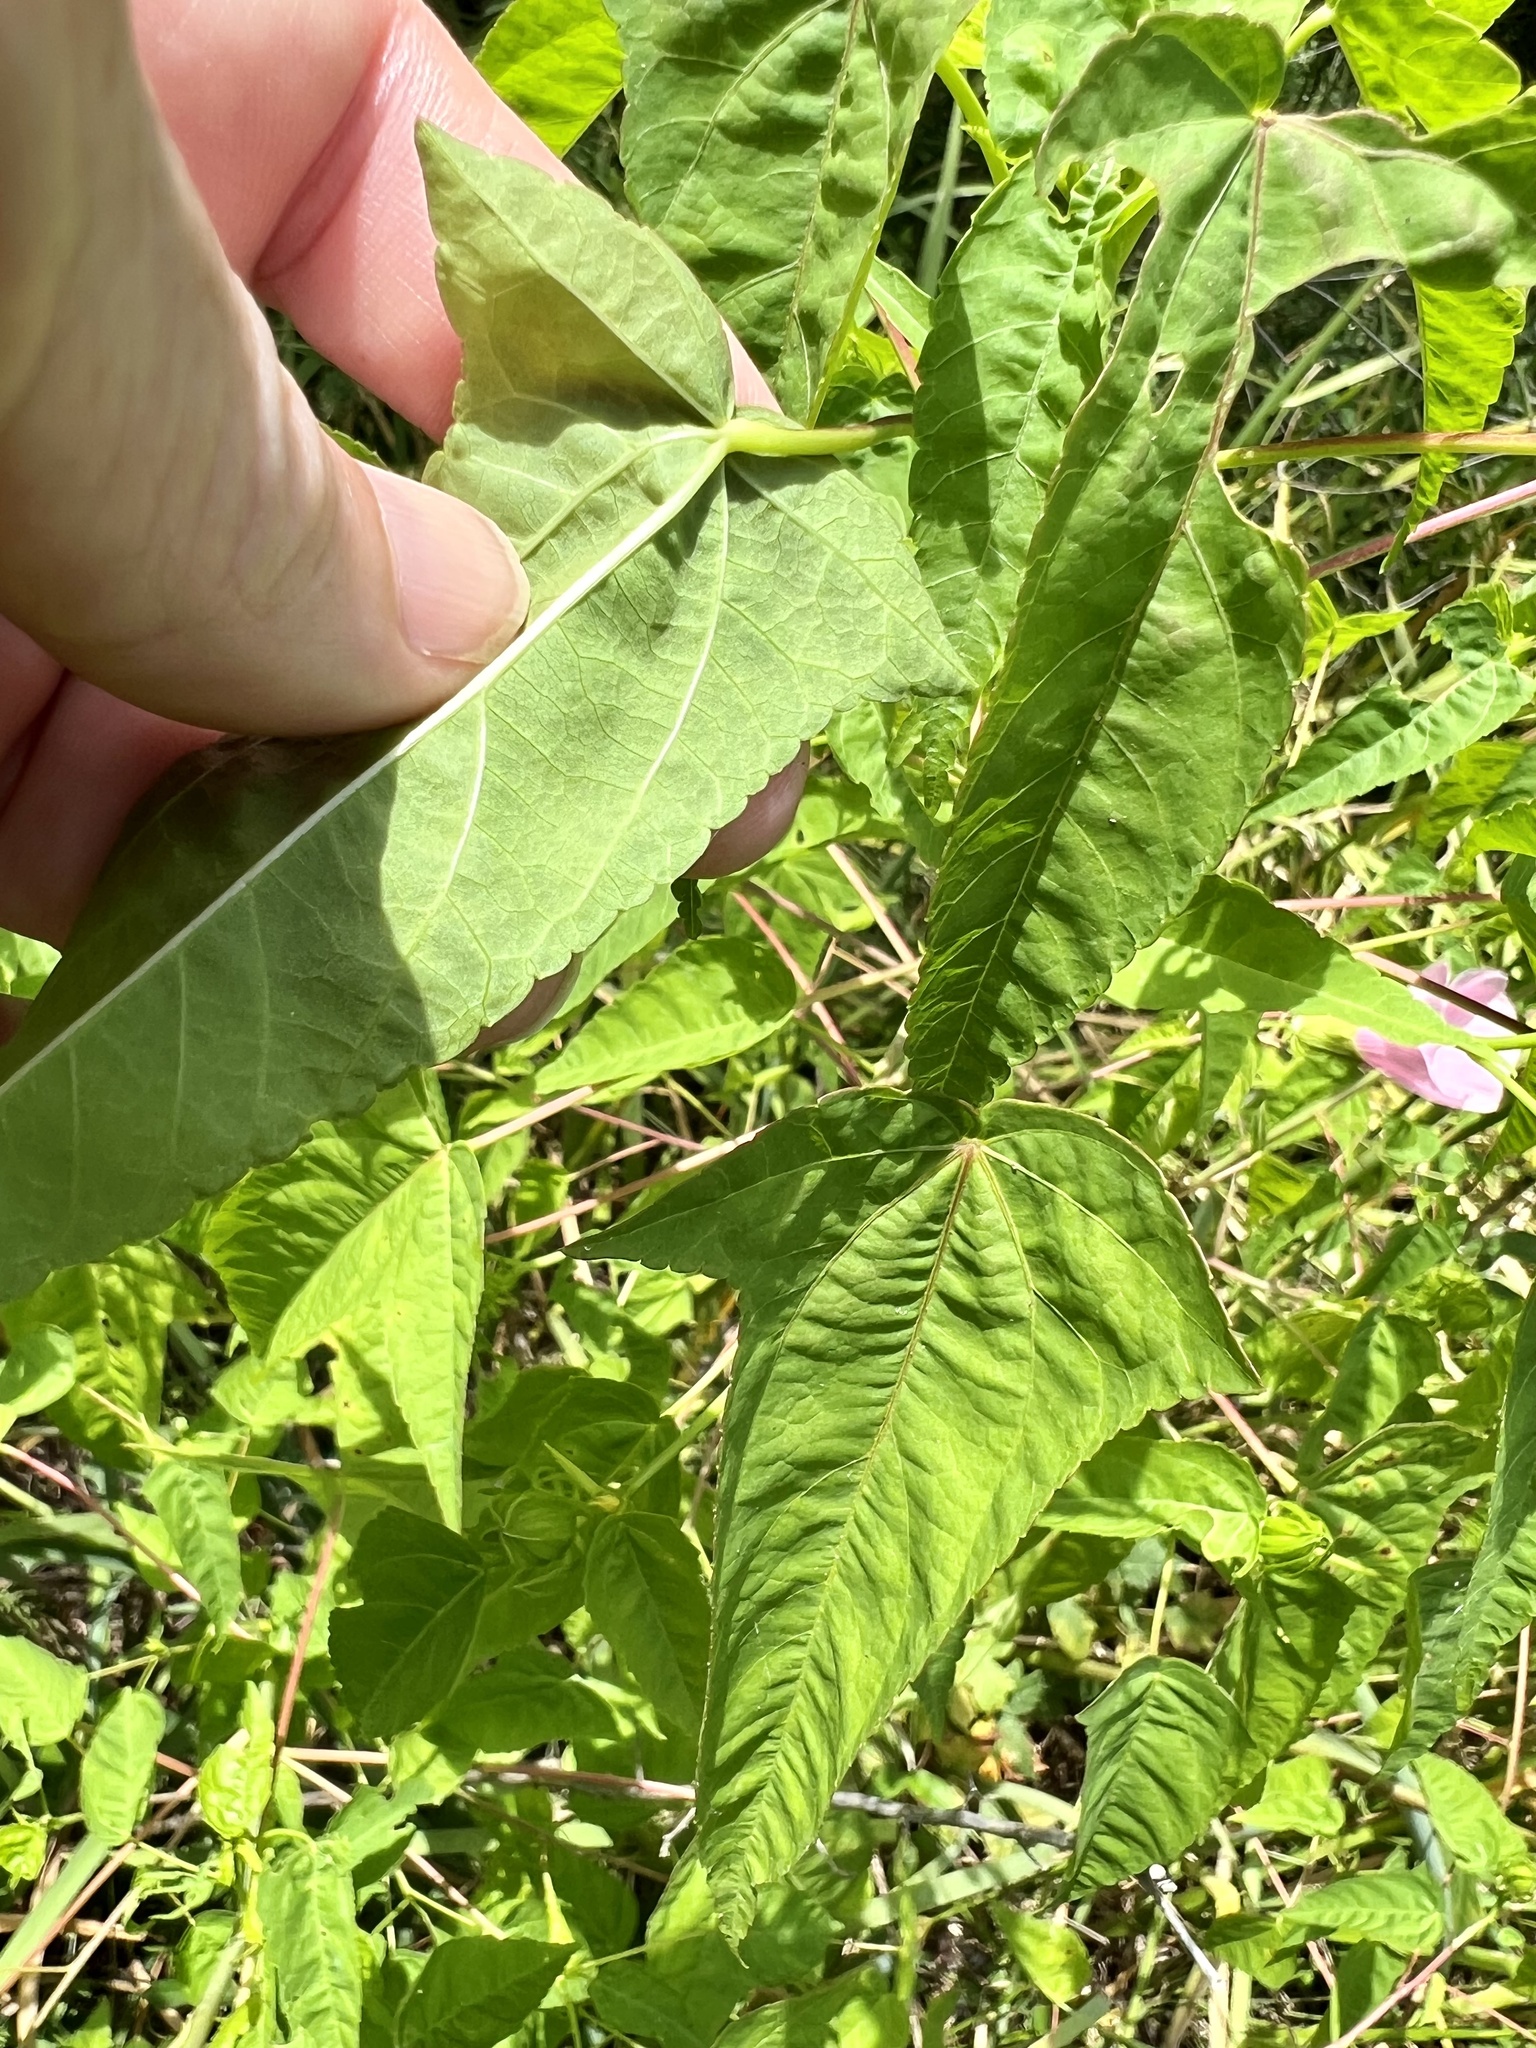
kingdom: Plantae
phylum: Tracheophyta
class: Magnoliopsida
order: Malvales
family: Malvaceae
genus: Hibiscus
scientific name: Hibiscus laevis
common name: Scarlet rose-mallow
